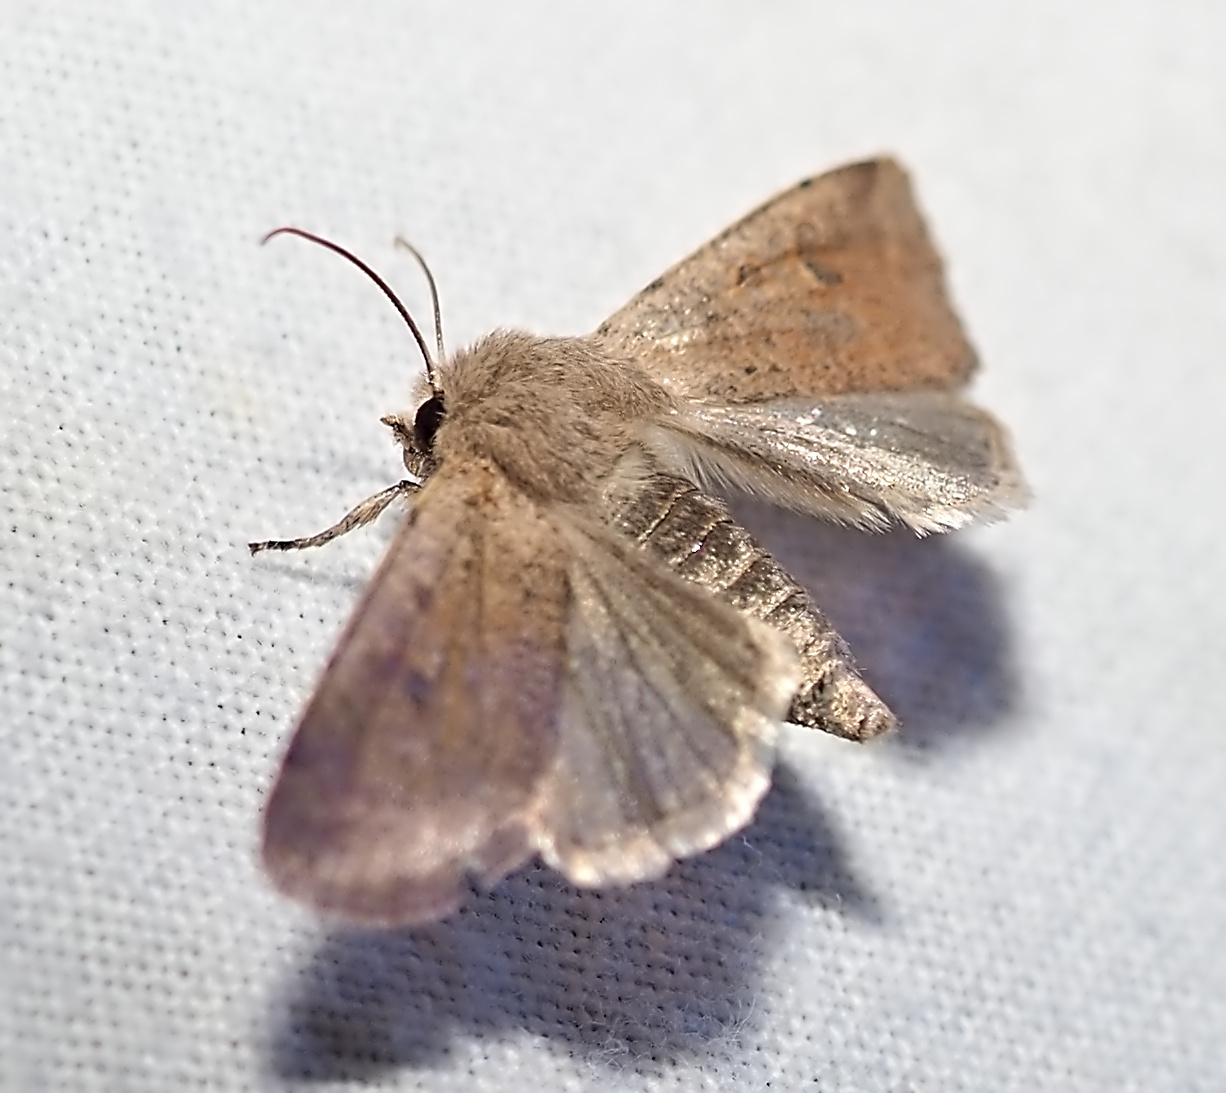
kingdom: Animalia
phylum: Arthropoda
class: Insecta
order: Lepidoptera
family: Noctuidae
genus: Orthosia
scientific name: Orthosia cruda
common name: Small quaker
